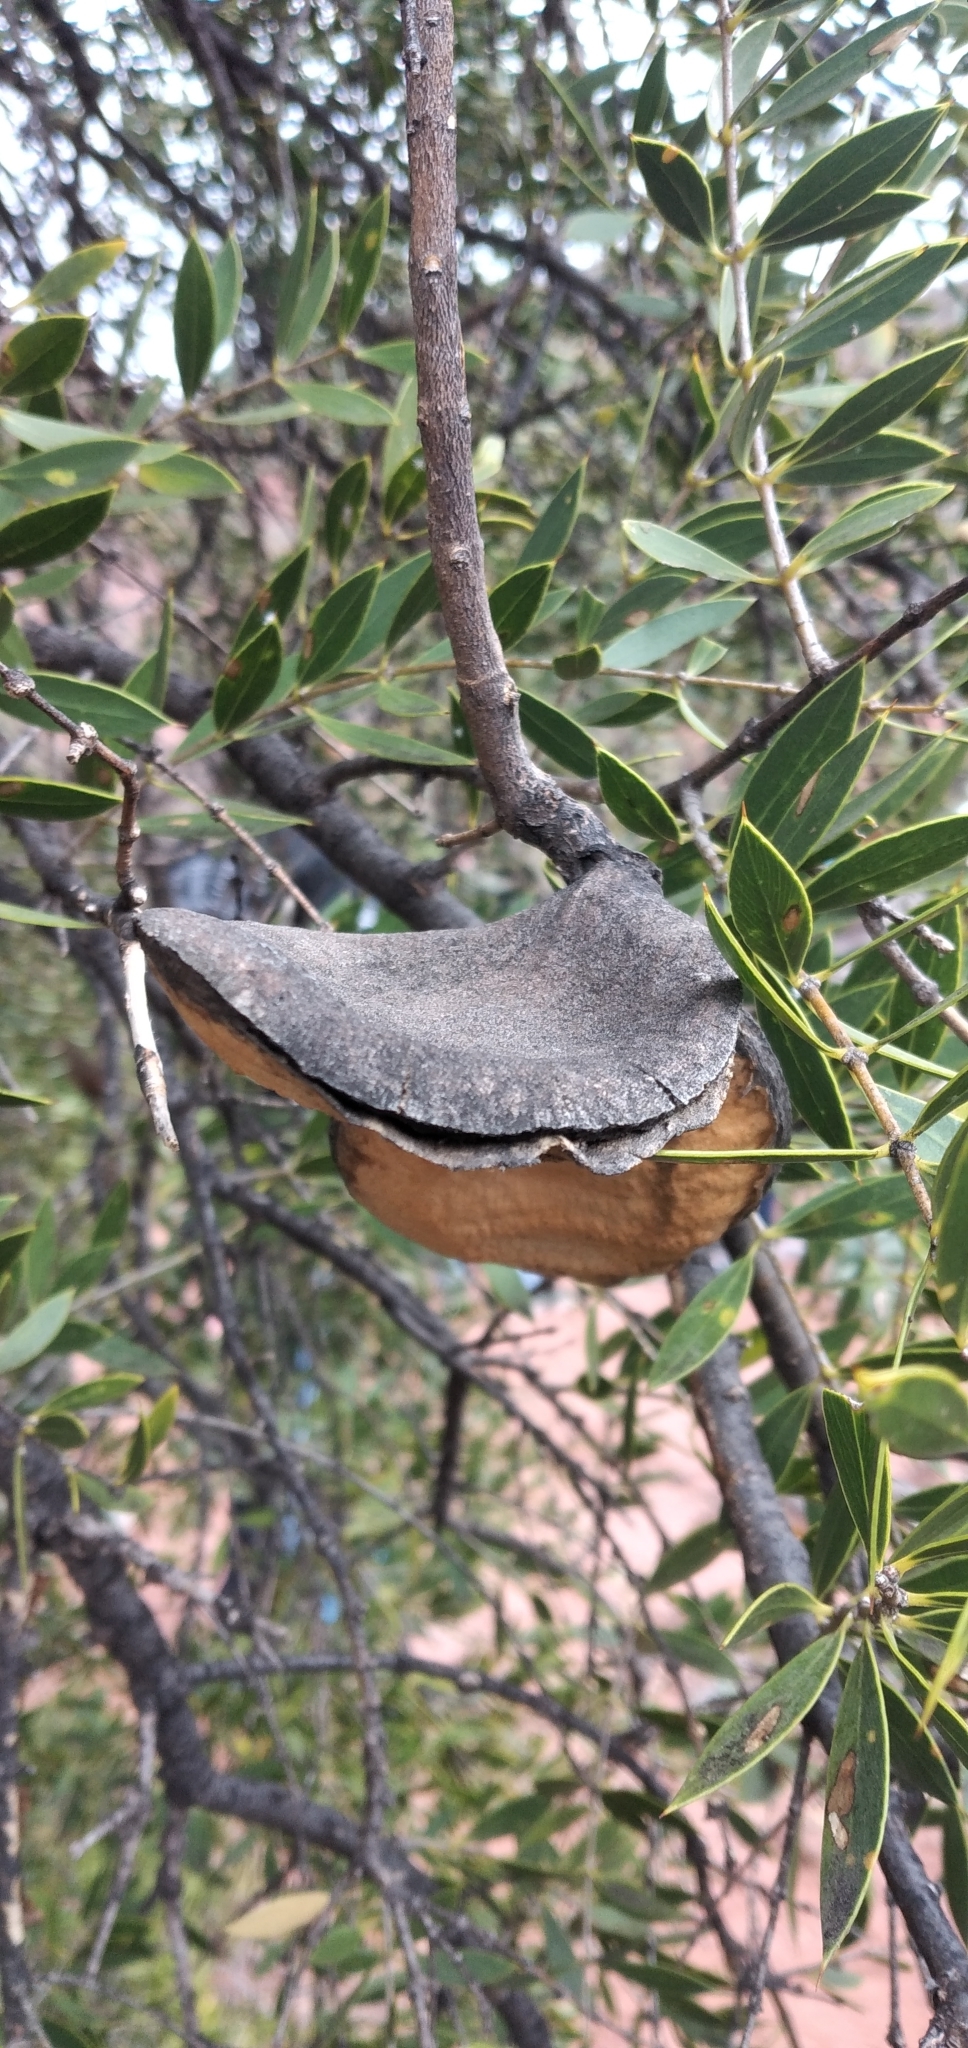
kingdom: Plantae
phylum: Tracheophyta
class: Magnoliopsida
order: Gentianales
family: Apocynaceae
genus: Aspidosperma
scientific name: Aspidosperma quebracho-blanco
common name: White quebracho
